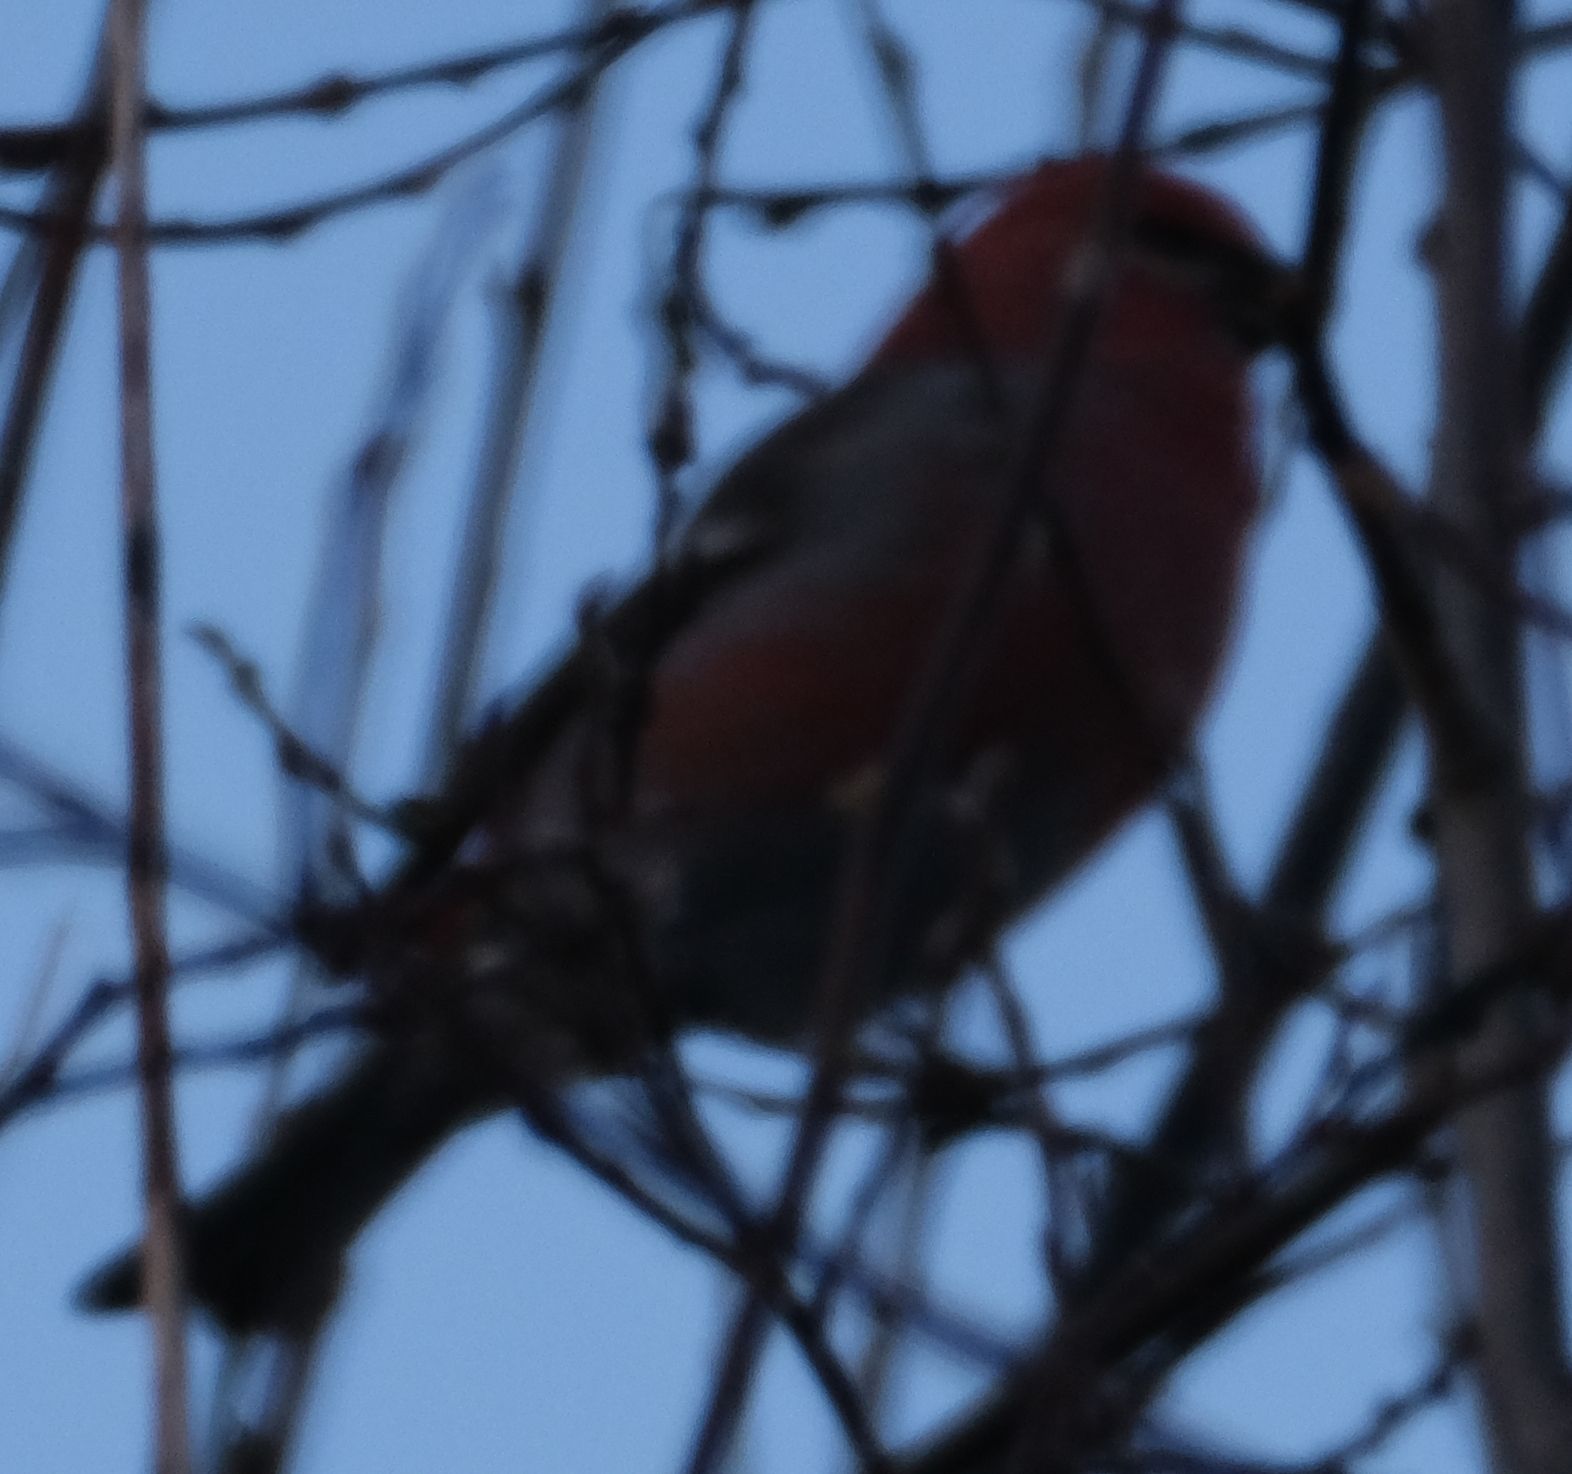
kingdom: Animalia
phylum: Chordata
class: Aves
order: Passeriformes
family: Fringillidae
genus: Pinicola
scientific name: Pinicola enucleator
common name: Pine grosbeak
